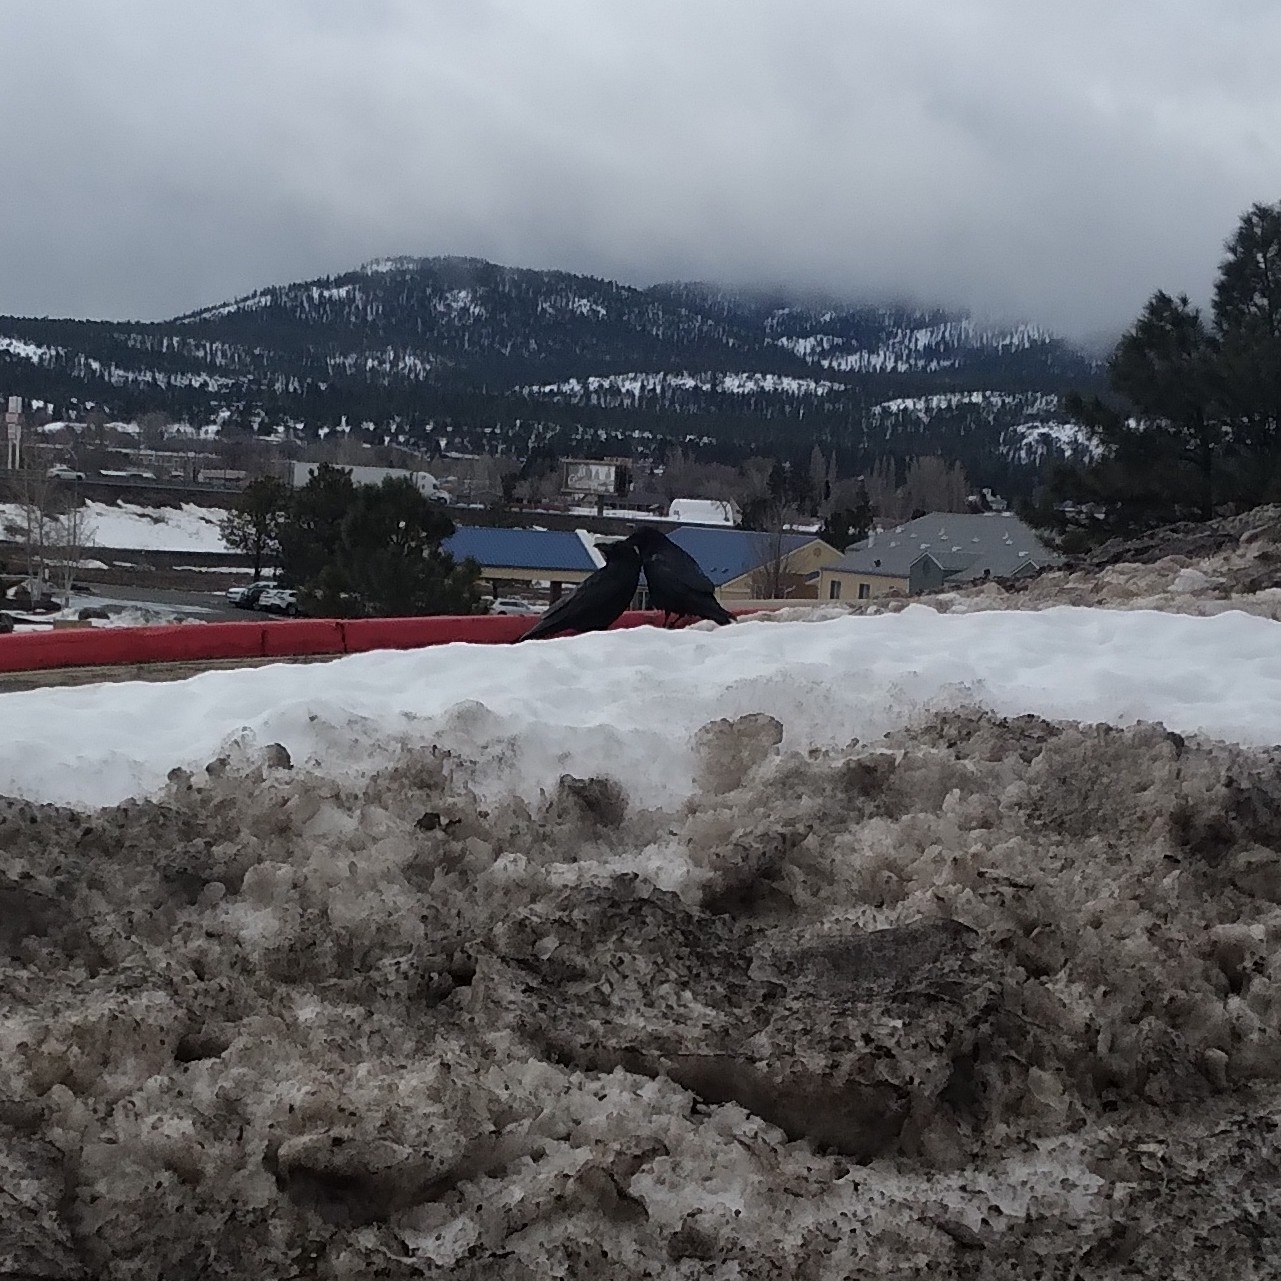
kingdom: Animalia
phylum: Chordata
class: Aves
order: Passeriformes
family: Corvidae
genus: Corvus
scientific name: Corvus corax
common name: Common raven
